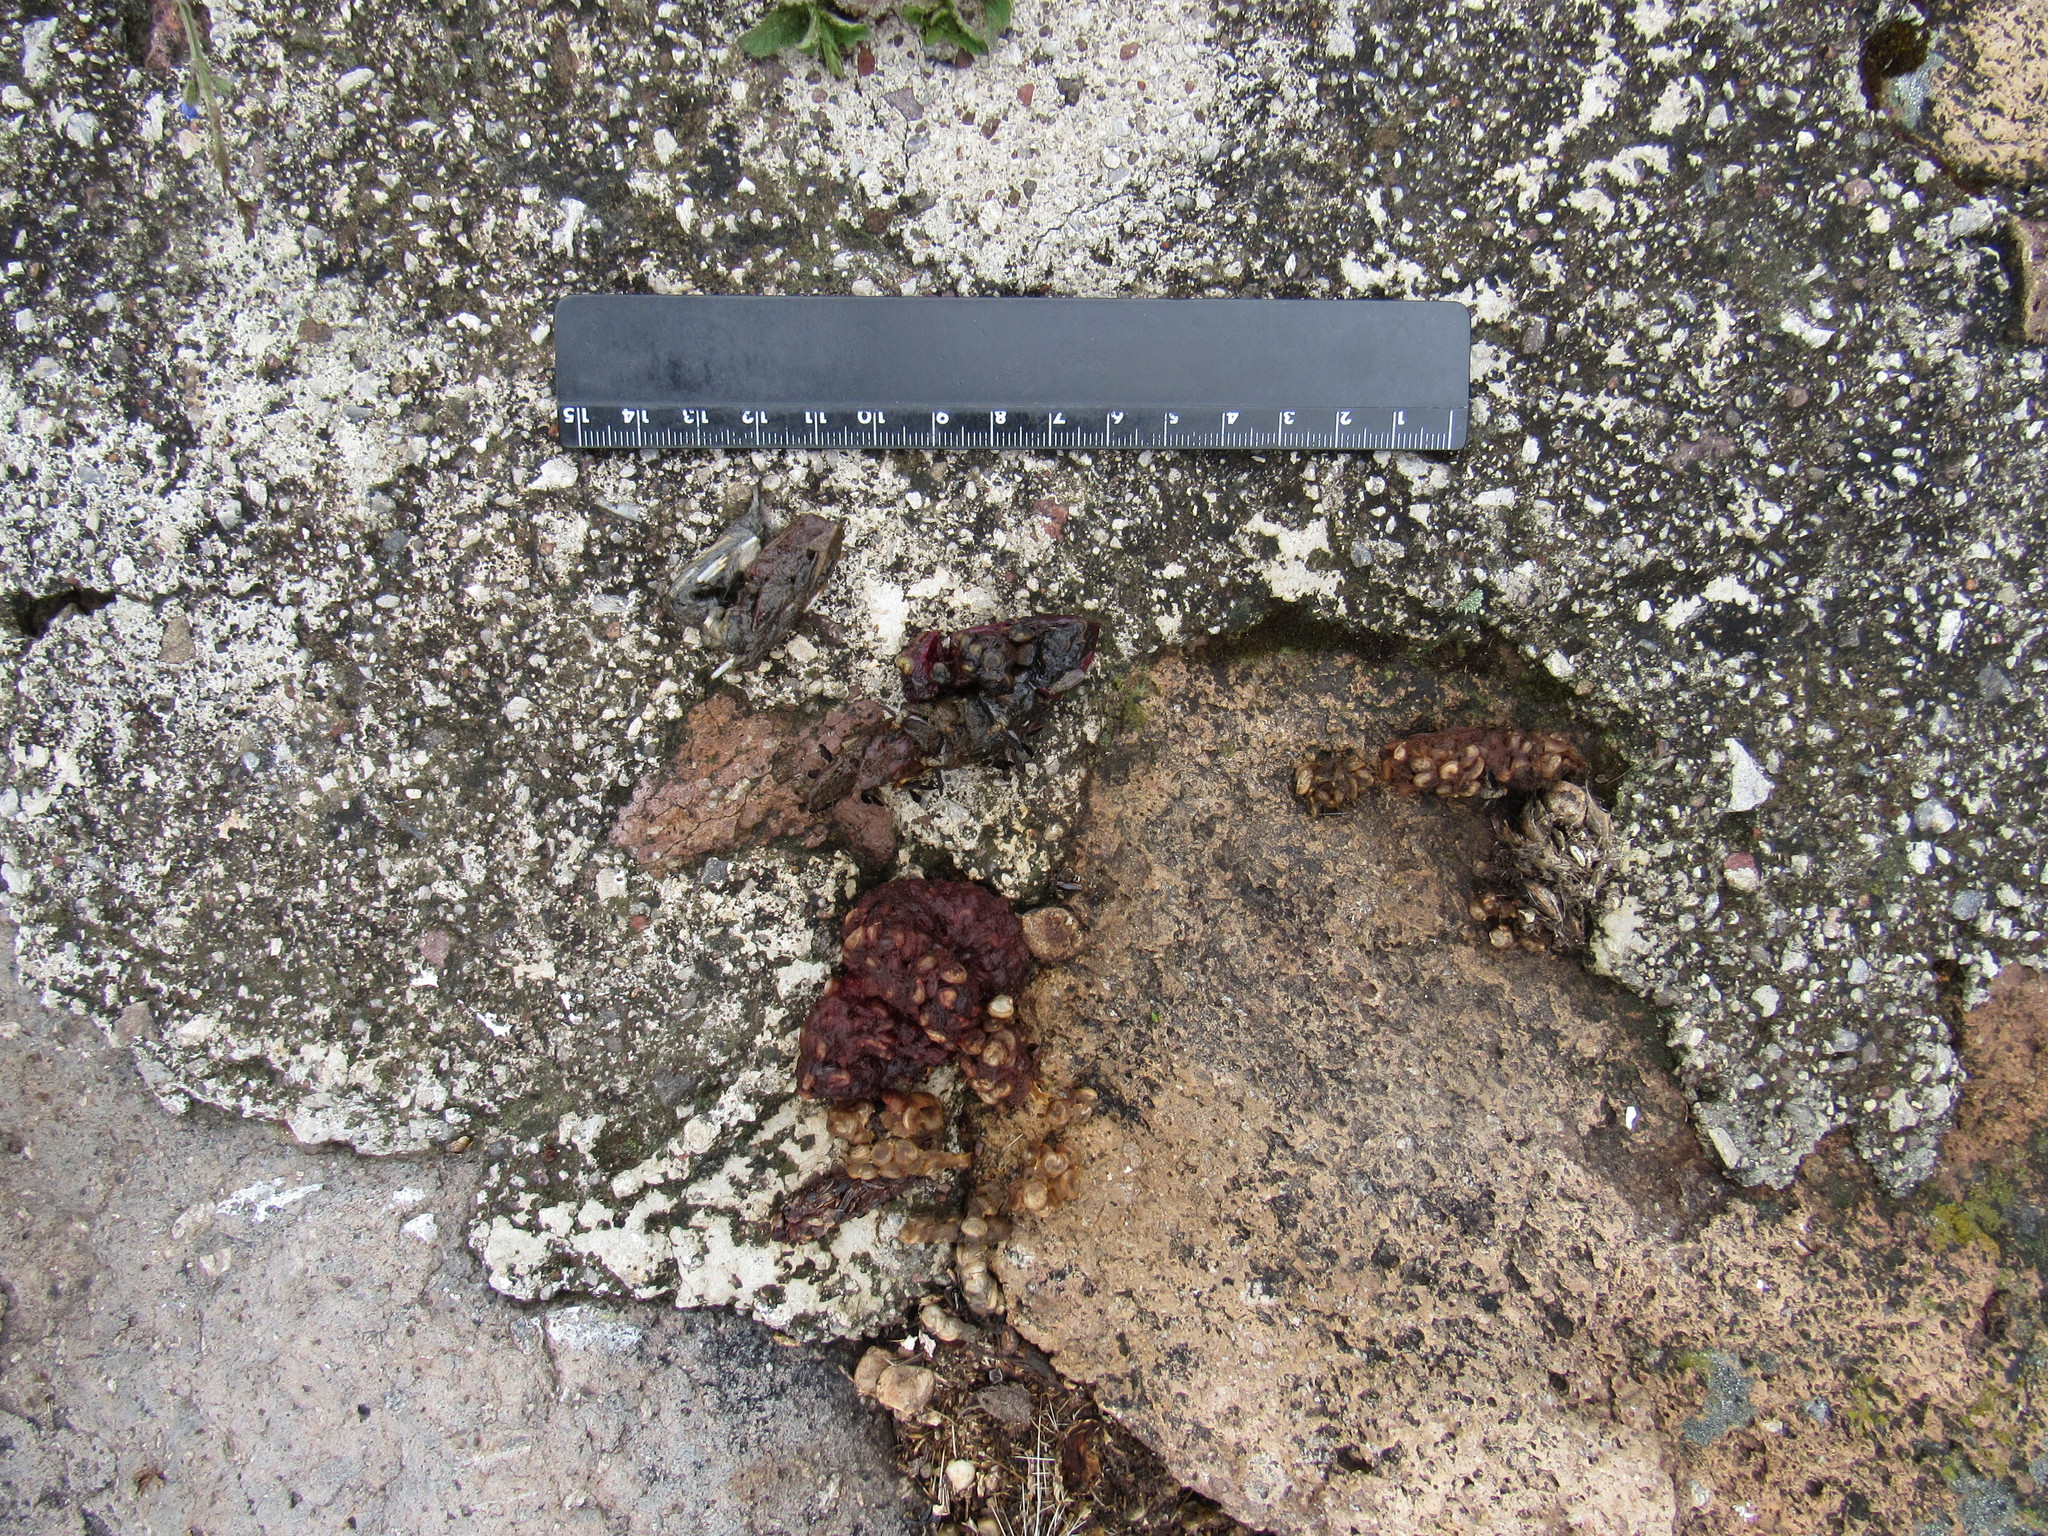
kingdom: Animalia
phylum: Chordata
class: Mammalia
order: Carnivora
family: Canidae
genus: Urocyon
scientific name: Urocyon cinereoargenteus
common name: Gray fox
